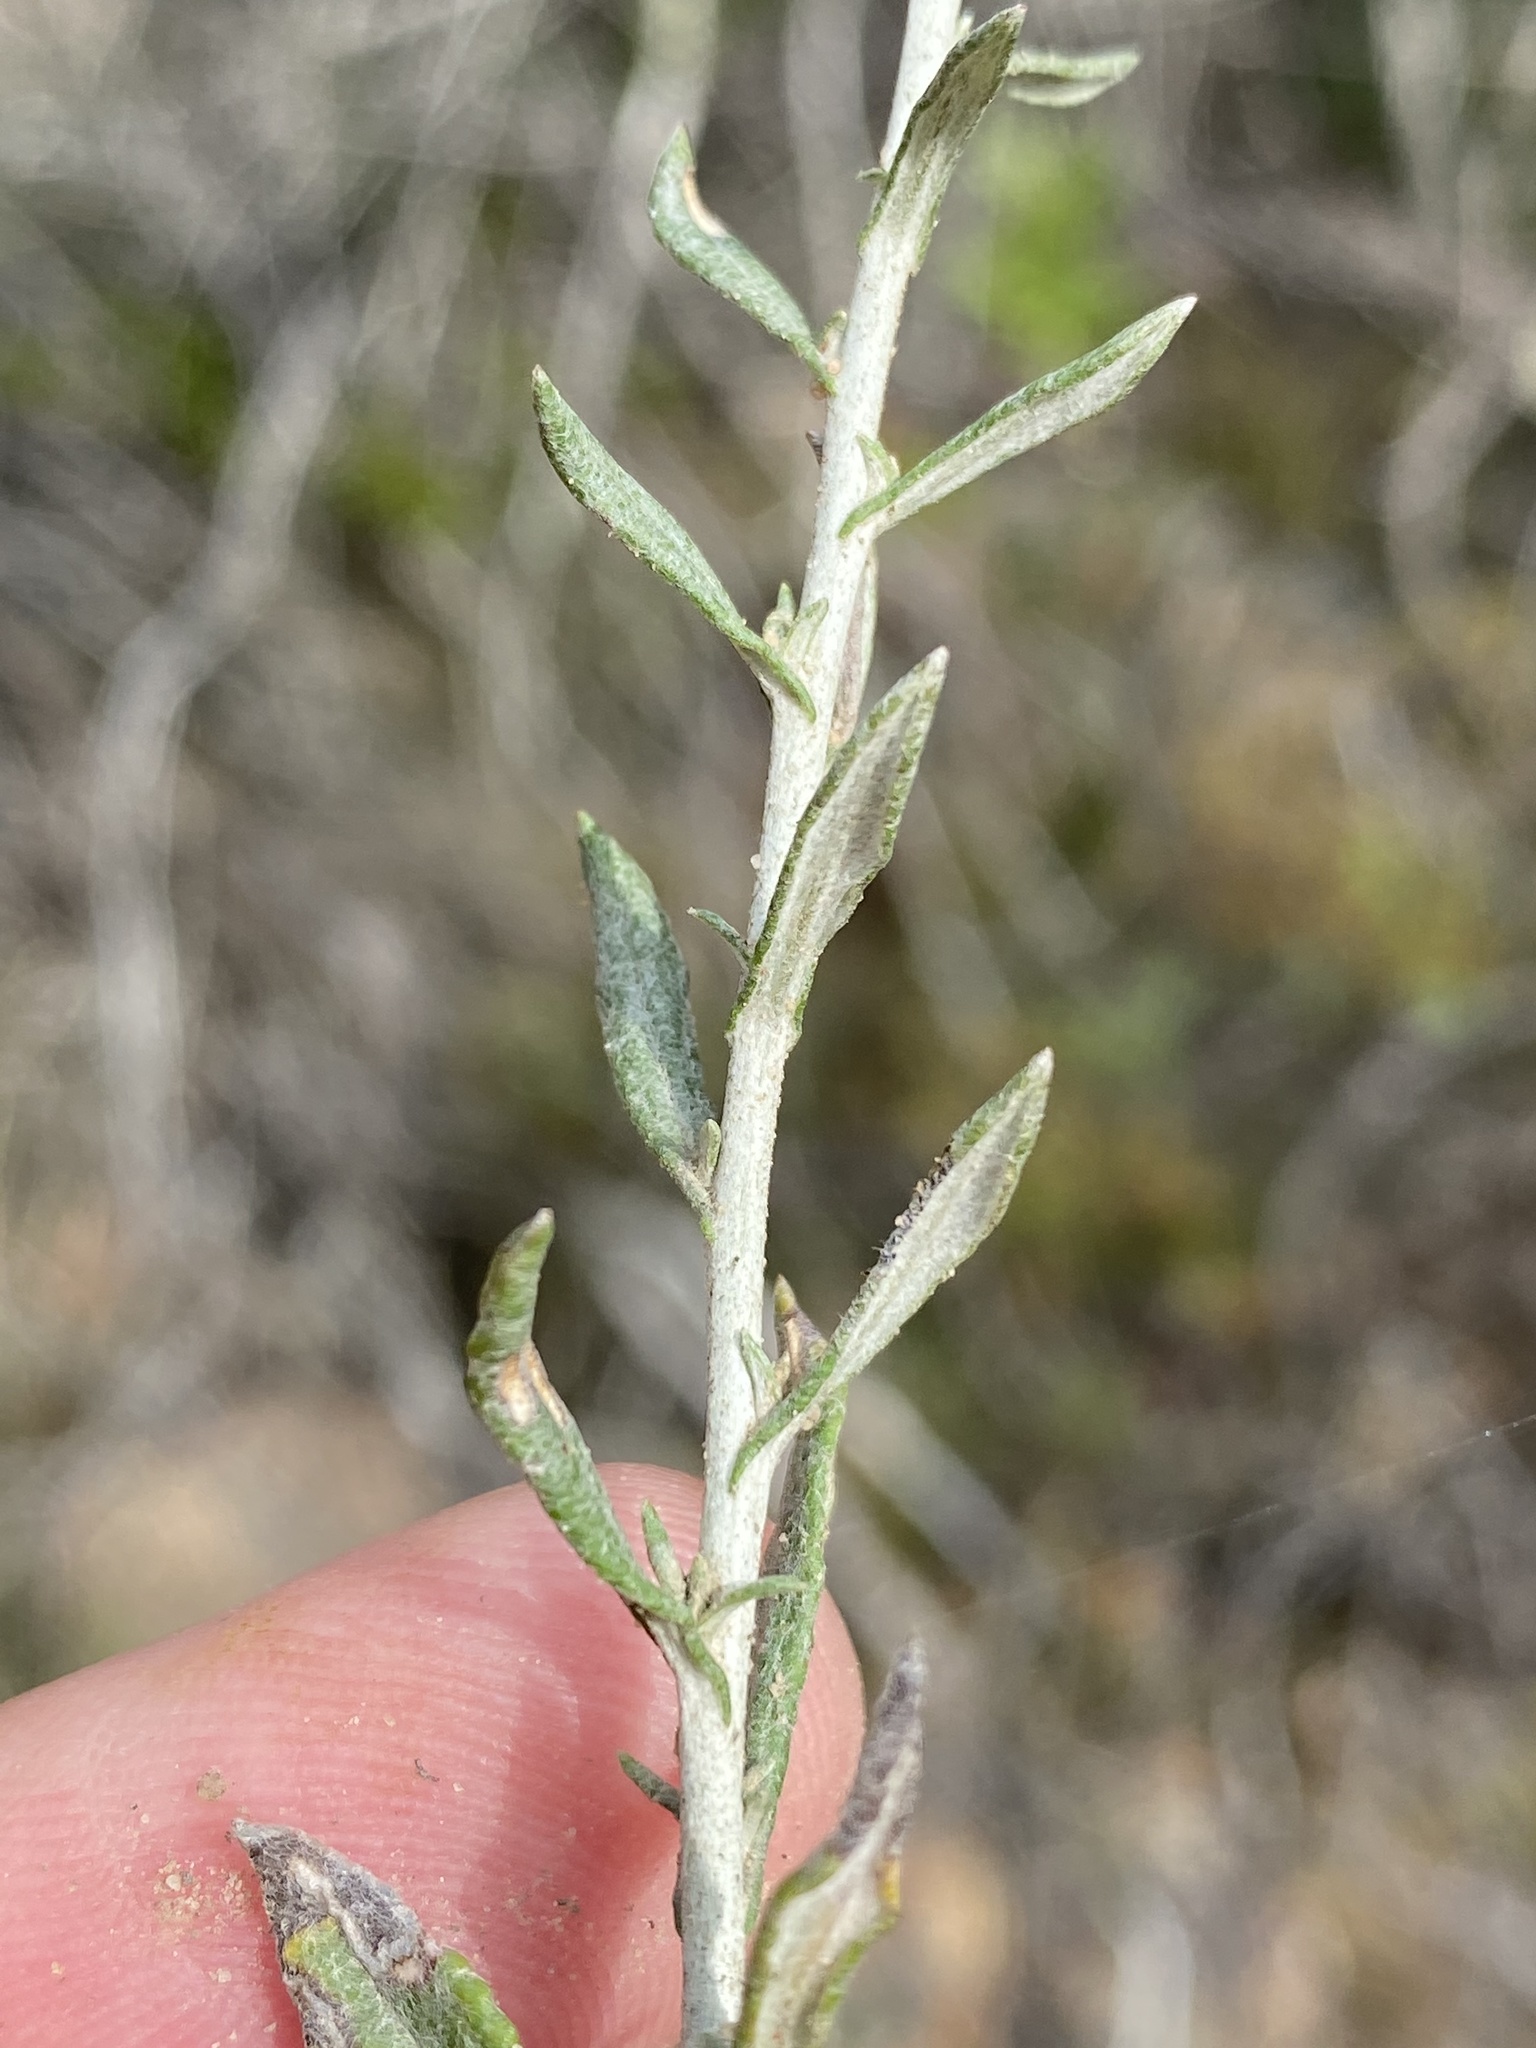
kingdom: Plantae
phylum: Tracheophyta
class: Magnoliopsida
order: Asterales
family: Asteraceae
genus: Helichrysum
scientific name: Helichrysum rosum
